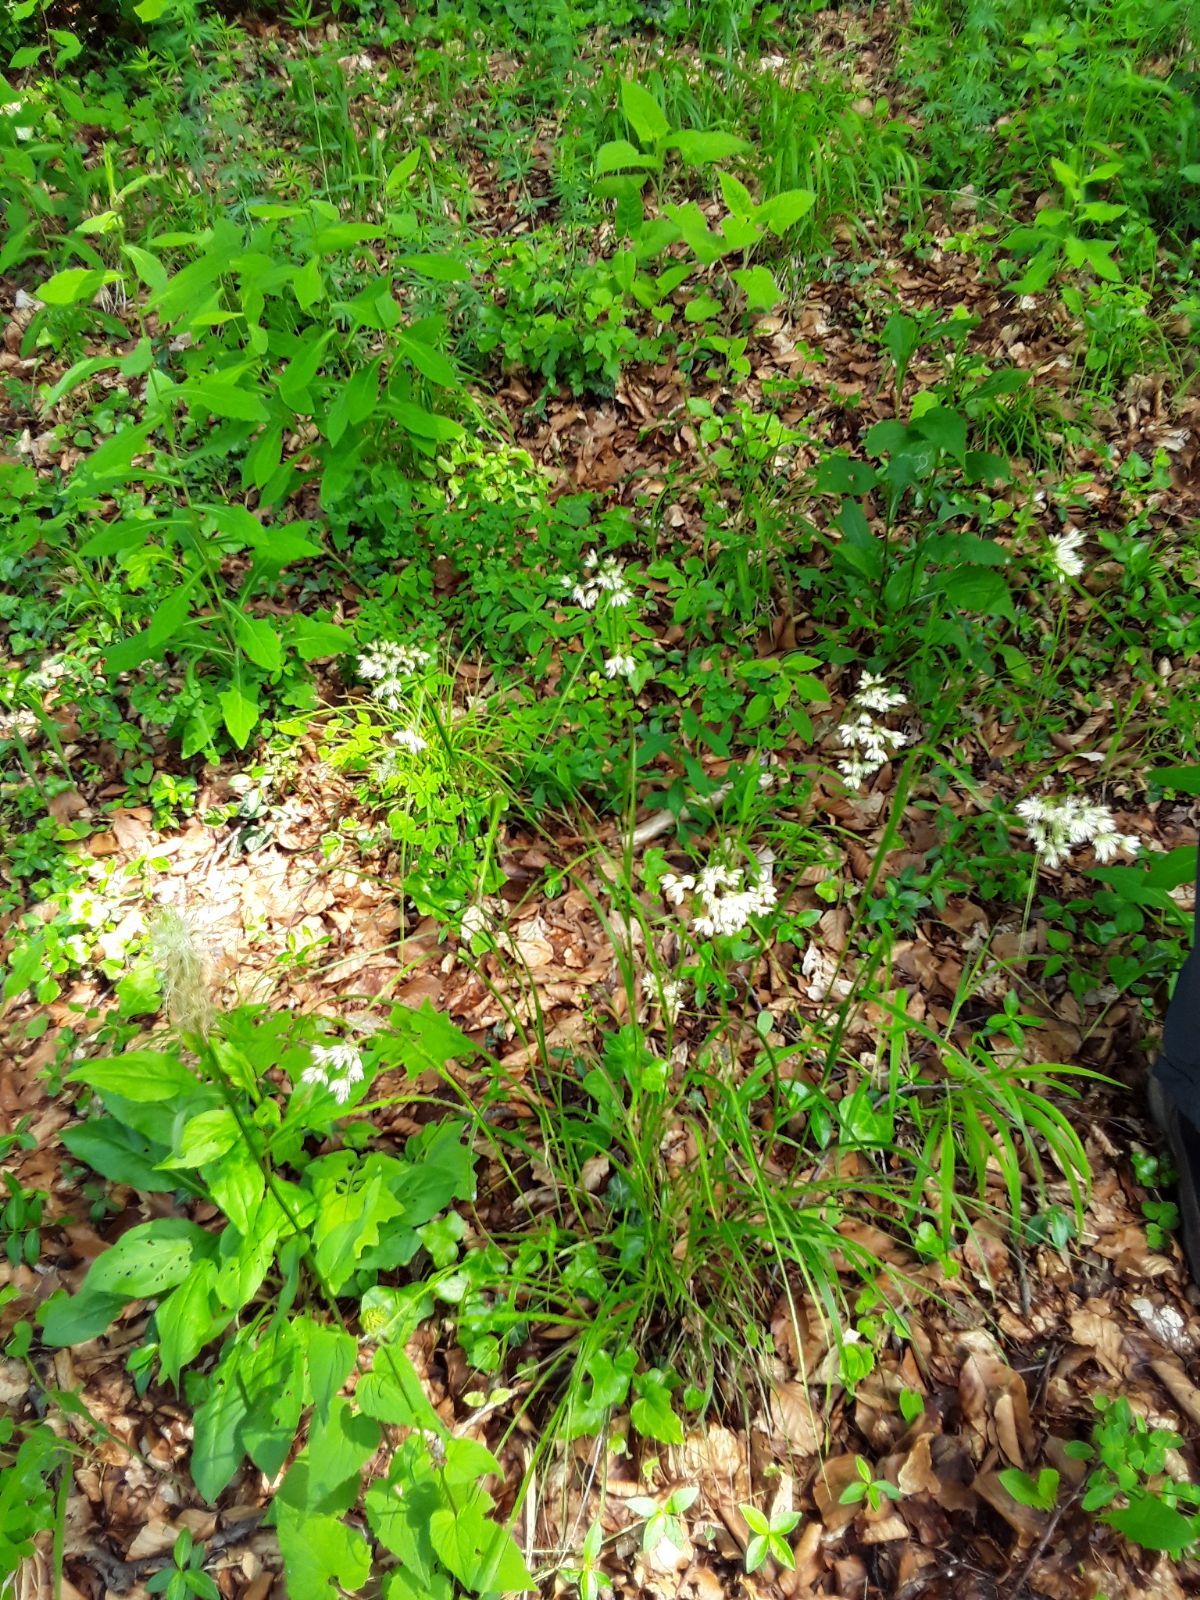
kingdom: Plantae
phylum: Tracheophyta
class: Liliopsida
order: Poales
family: Juncaceae
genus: Luzula
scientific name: Luzula nivea
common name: Snow-white wood-rush
